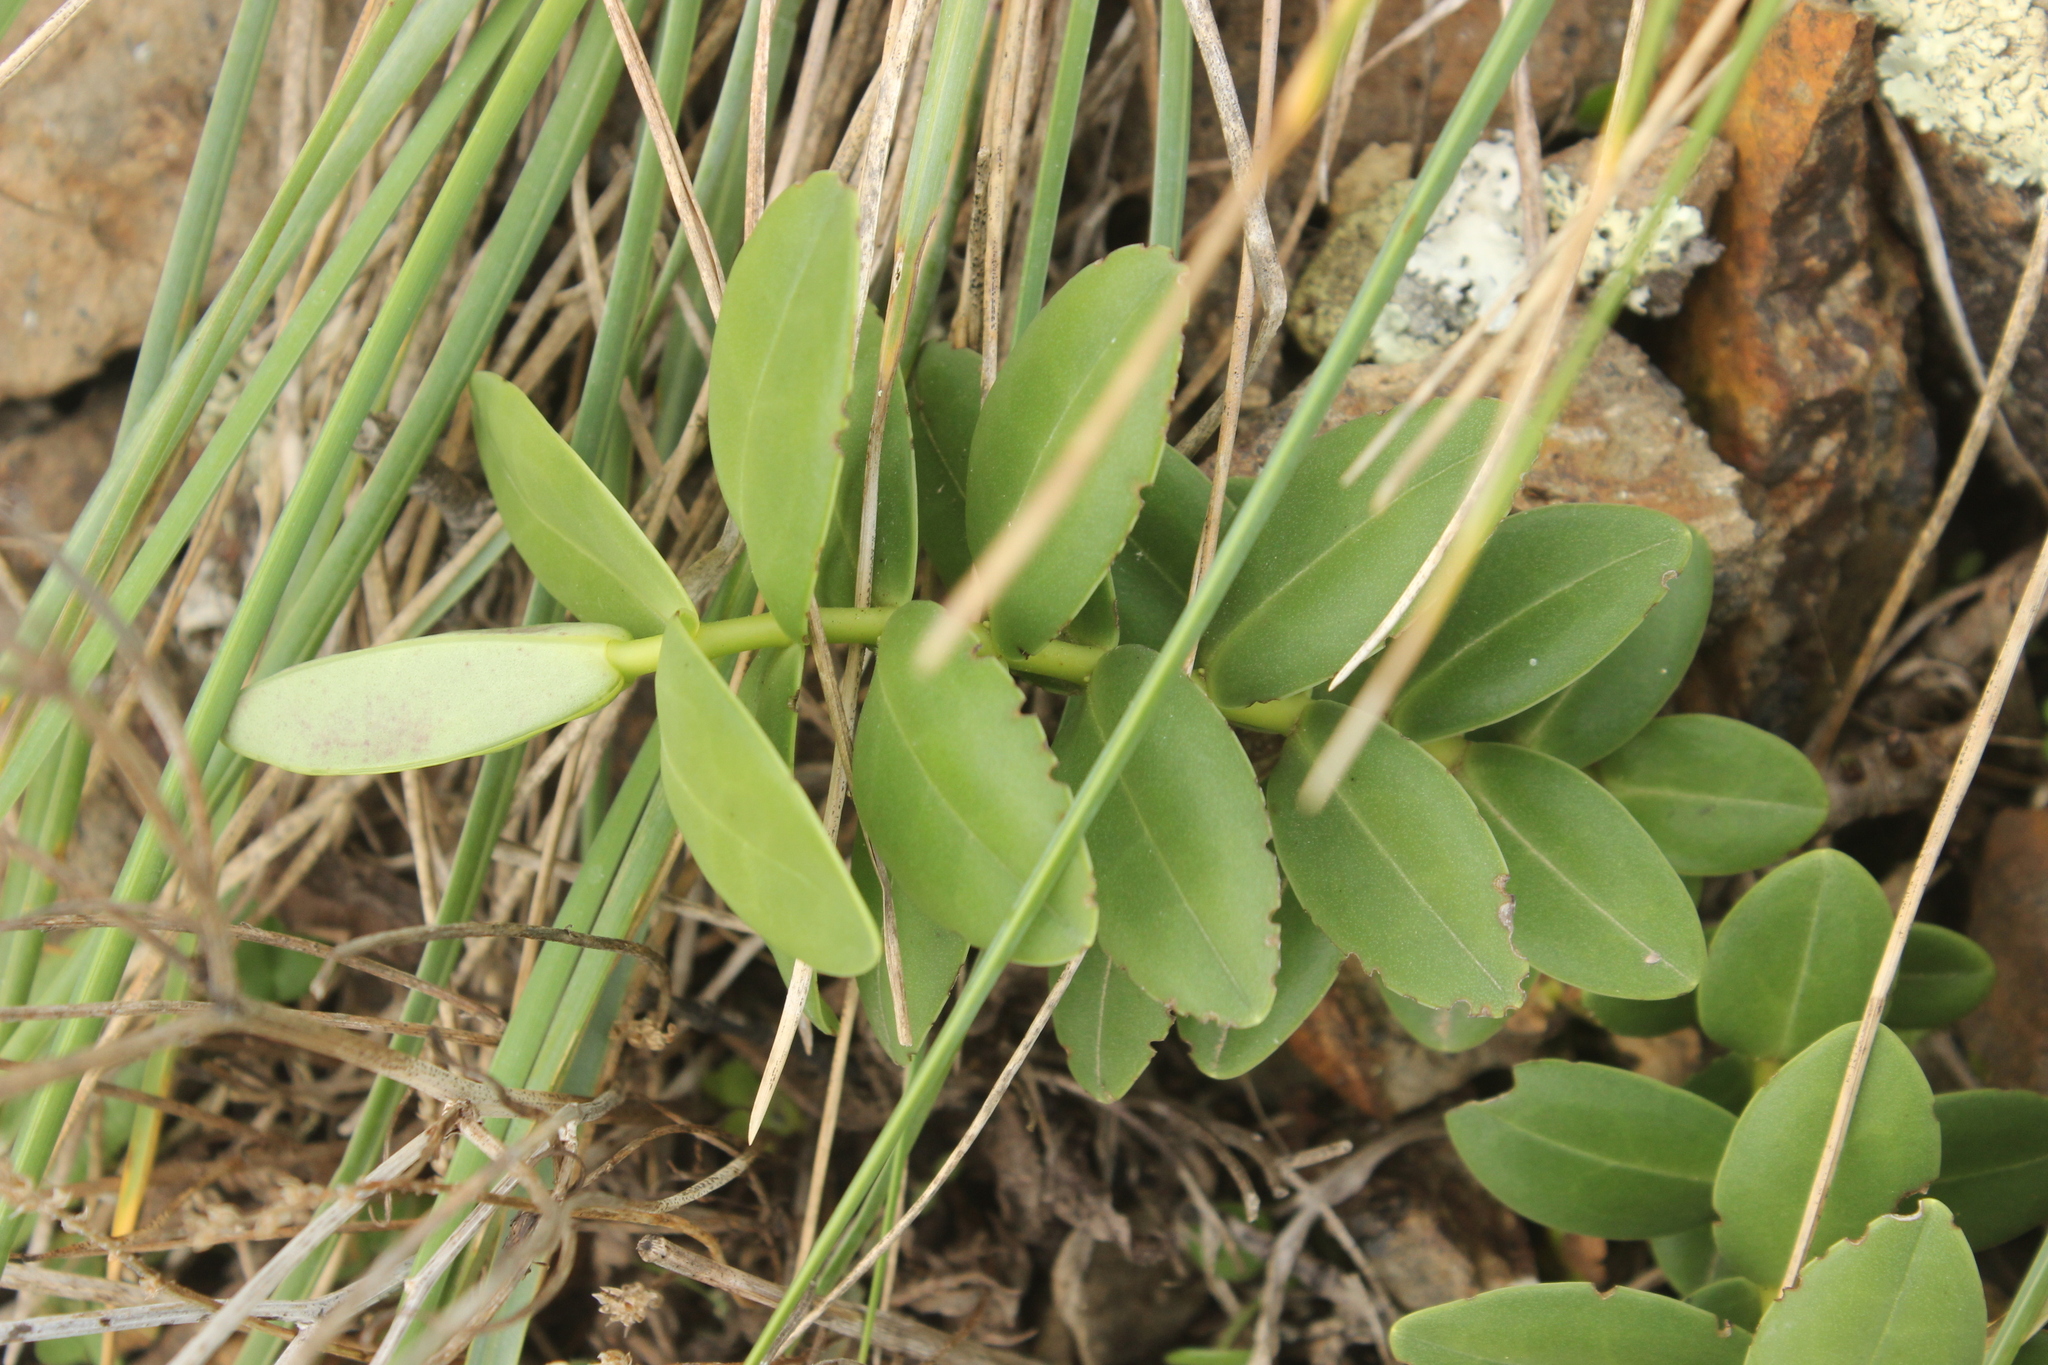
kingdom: Plantae
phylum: Tracheophyta
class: Magnoliopsida
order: Lamiales
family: Plantaginaceae
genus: Veronica
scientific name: Veronica chathamica
